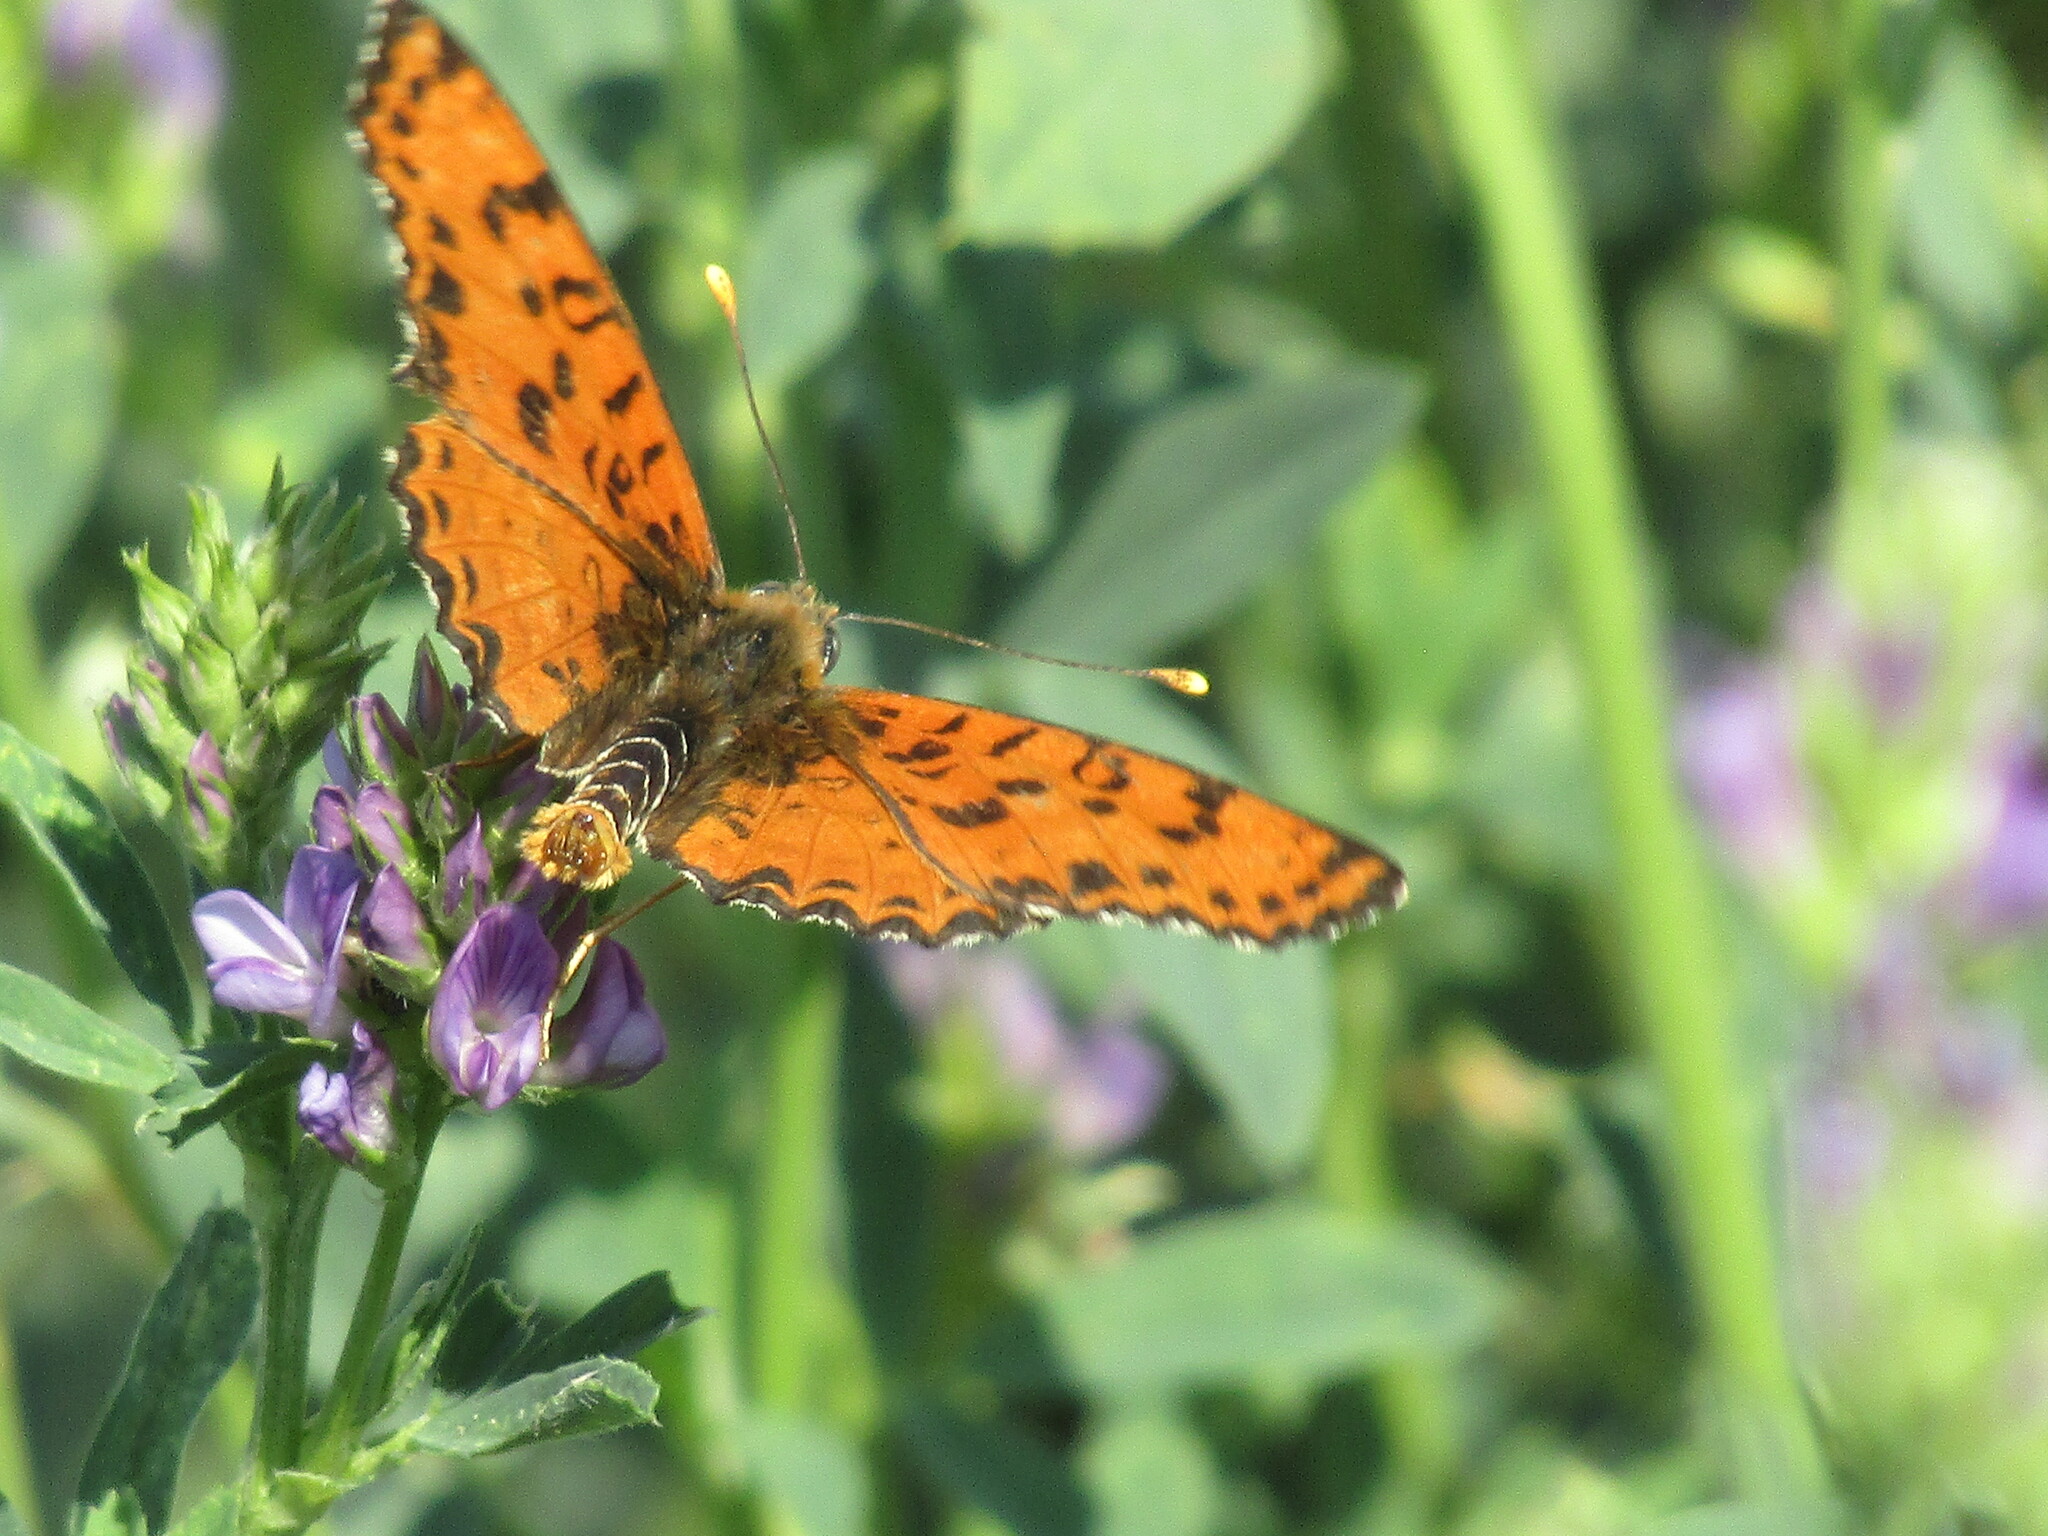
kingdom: Animalia
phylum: Arthropoda
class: Insecta
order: Lepidoptera
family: Nymphalidae
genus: Melitaea
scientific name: Melitaea didyma
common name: Spotted fritillary
